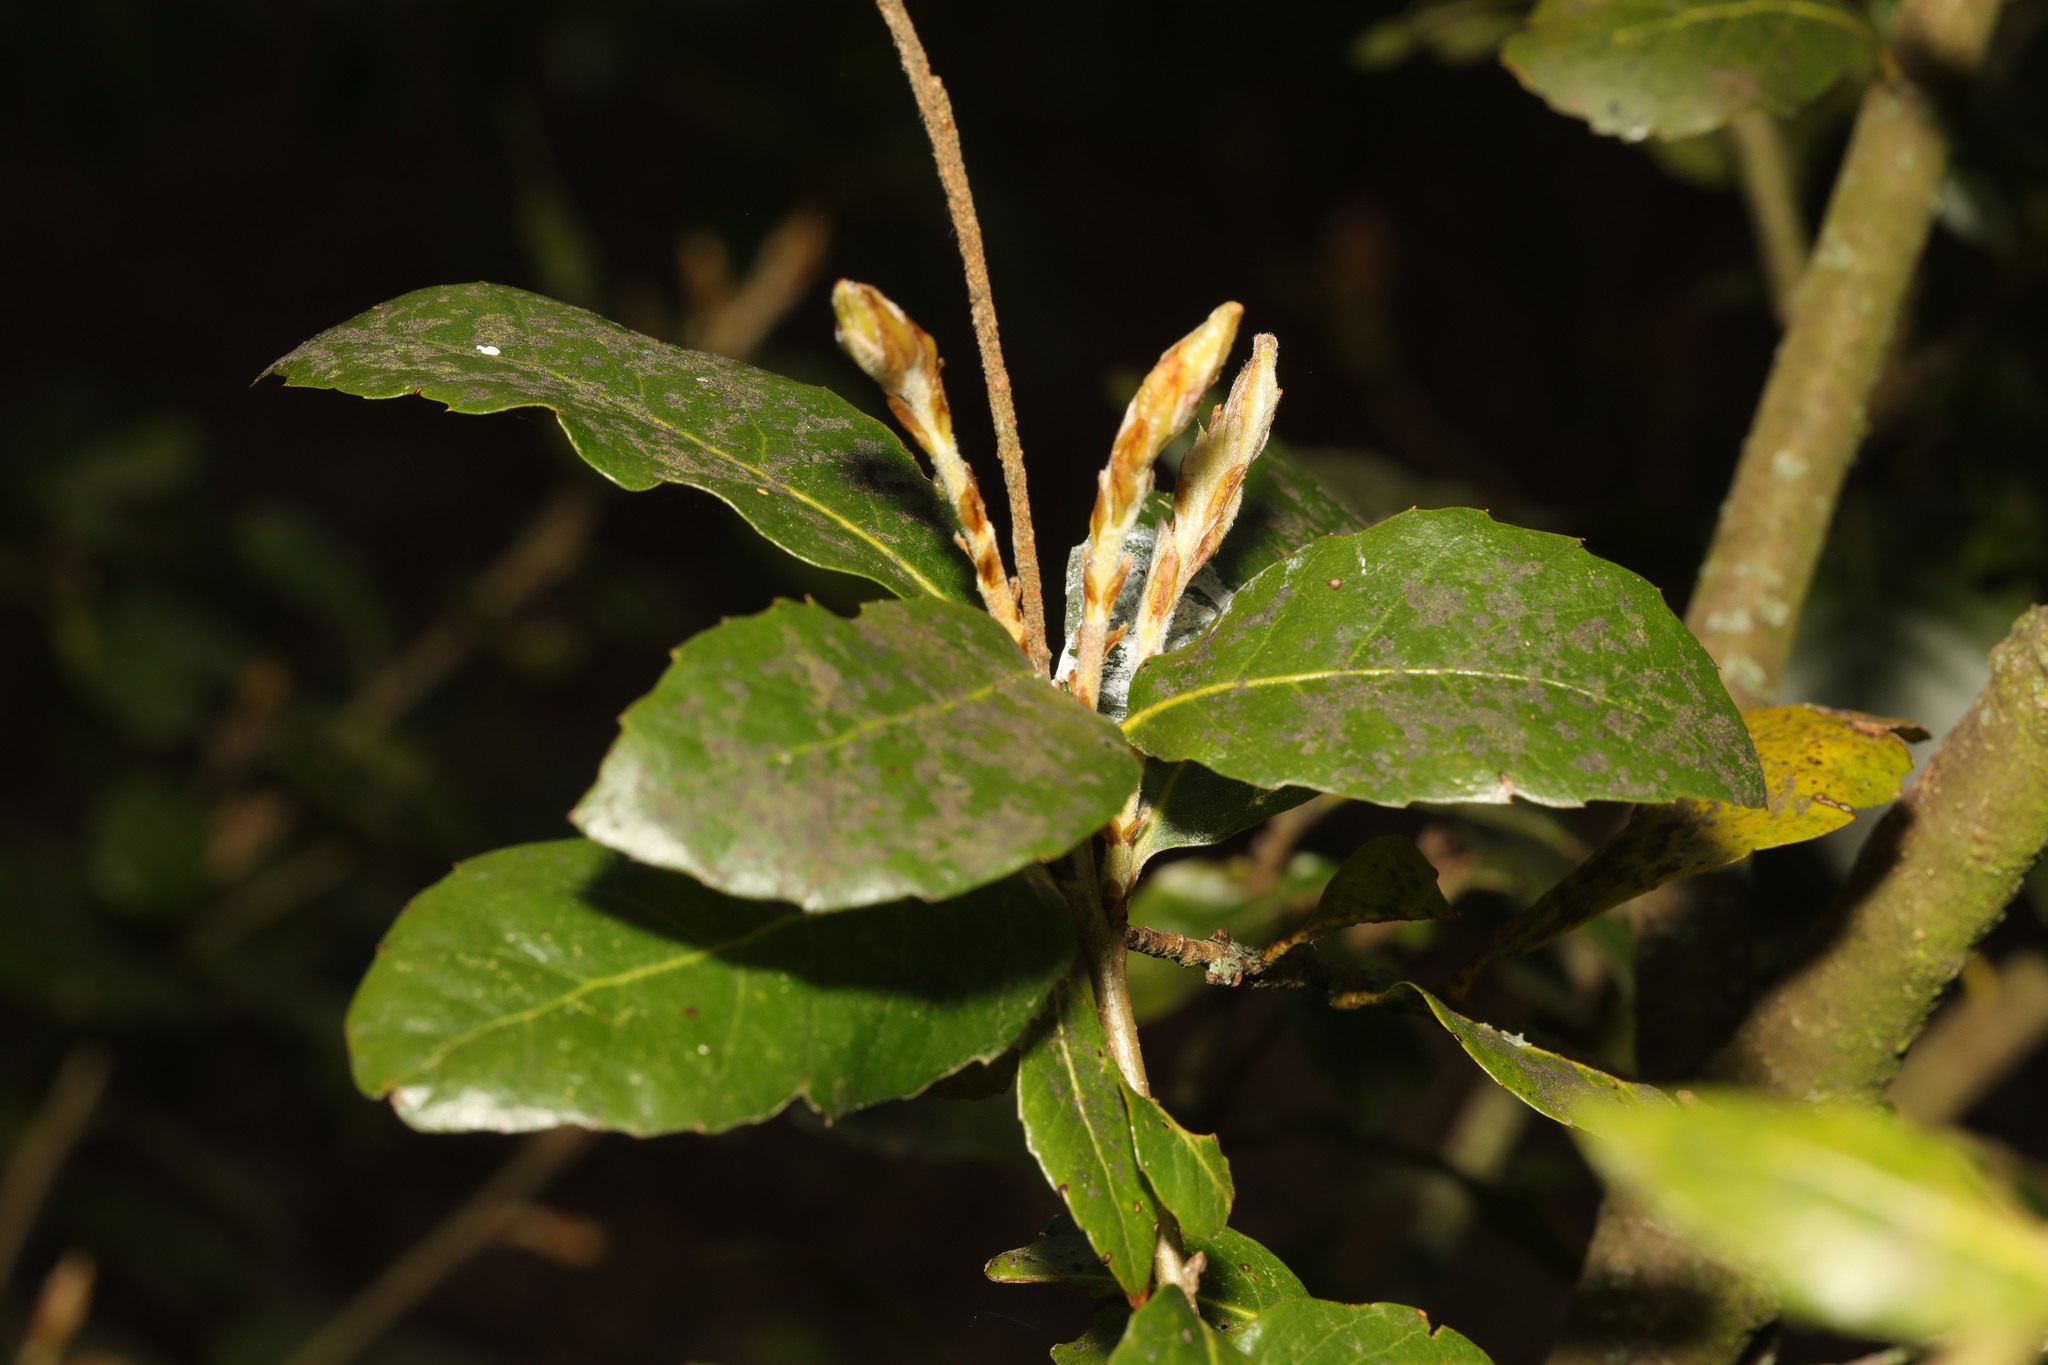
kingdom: Plantae
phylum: Tracheophyta
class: Magnoliopsida
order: Laurales
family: Lauraceae
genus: Laurus
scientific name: Laurus nobilis
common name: Bay
